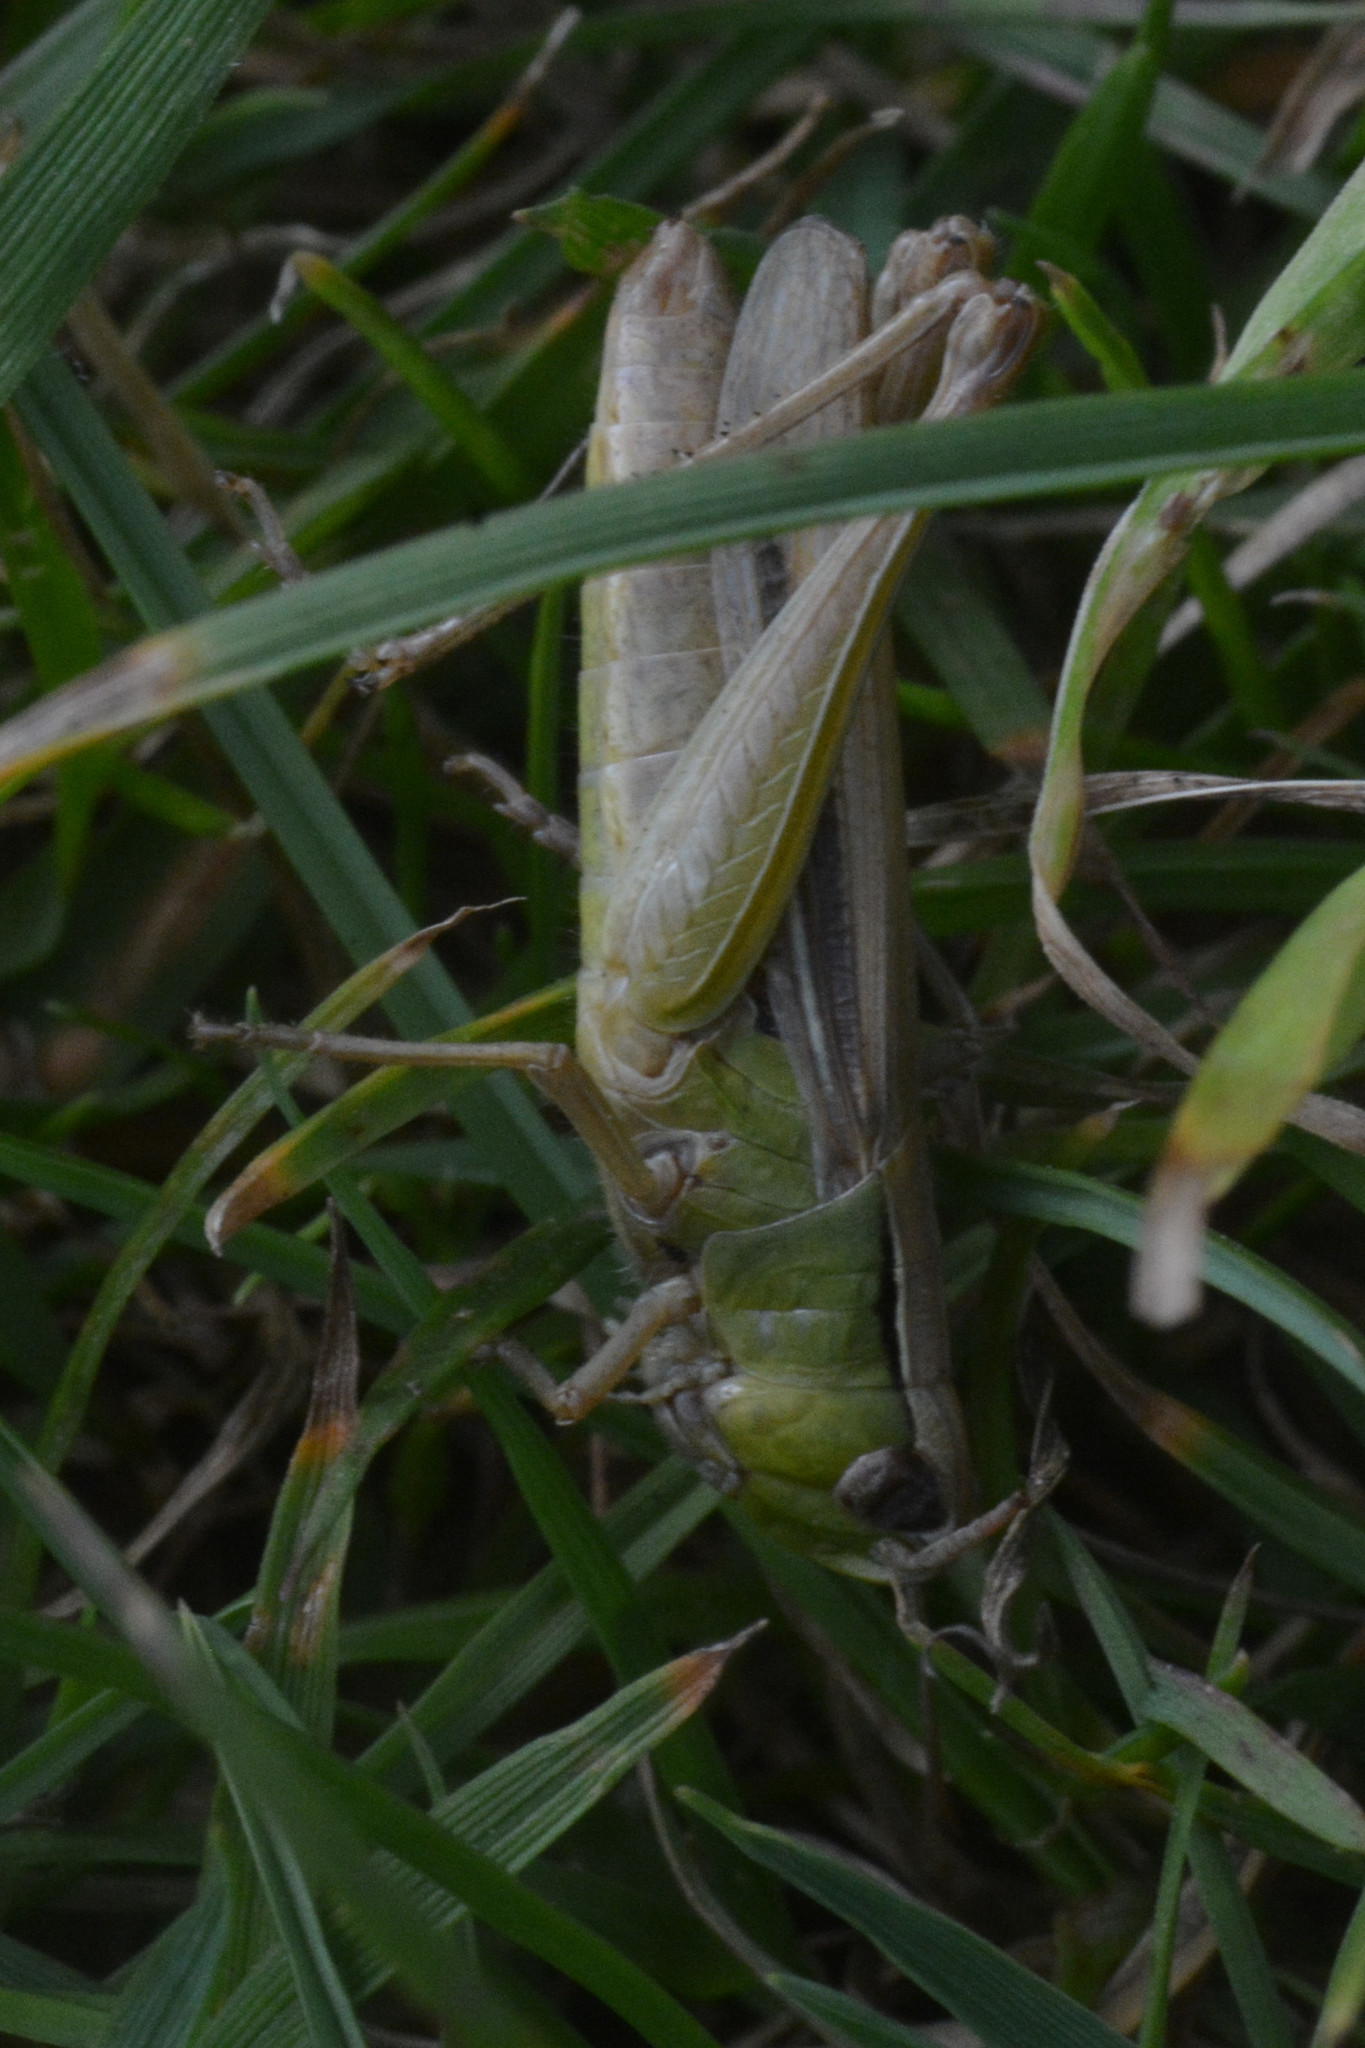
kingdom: Animalia
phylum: Arthropoda
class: Insecta
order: Orthoptera
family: Acrididae
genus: Chorthippus
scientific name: Chorthippus albomarginatus
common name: Lesser marsh grasshopper
